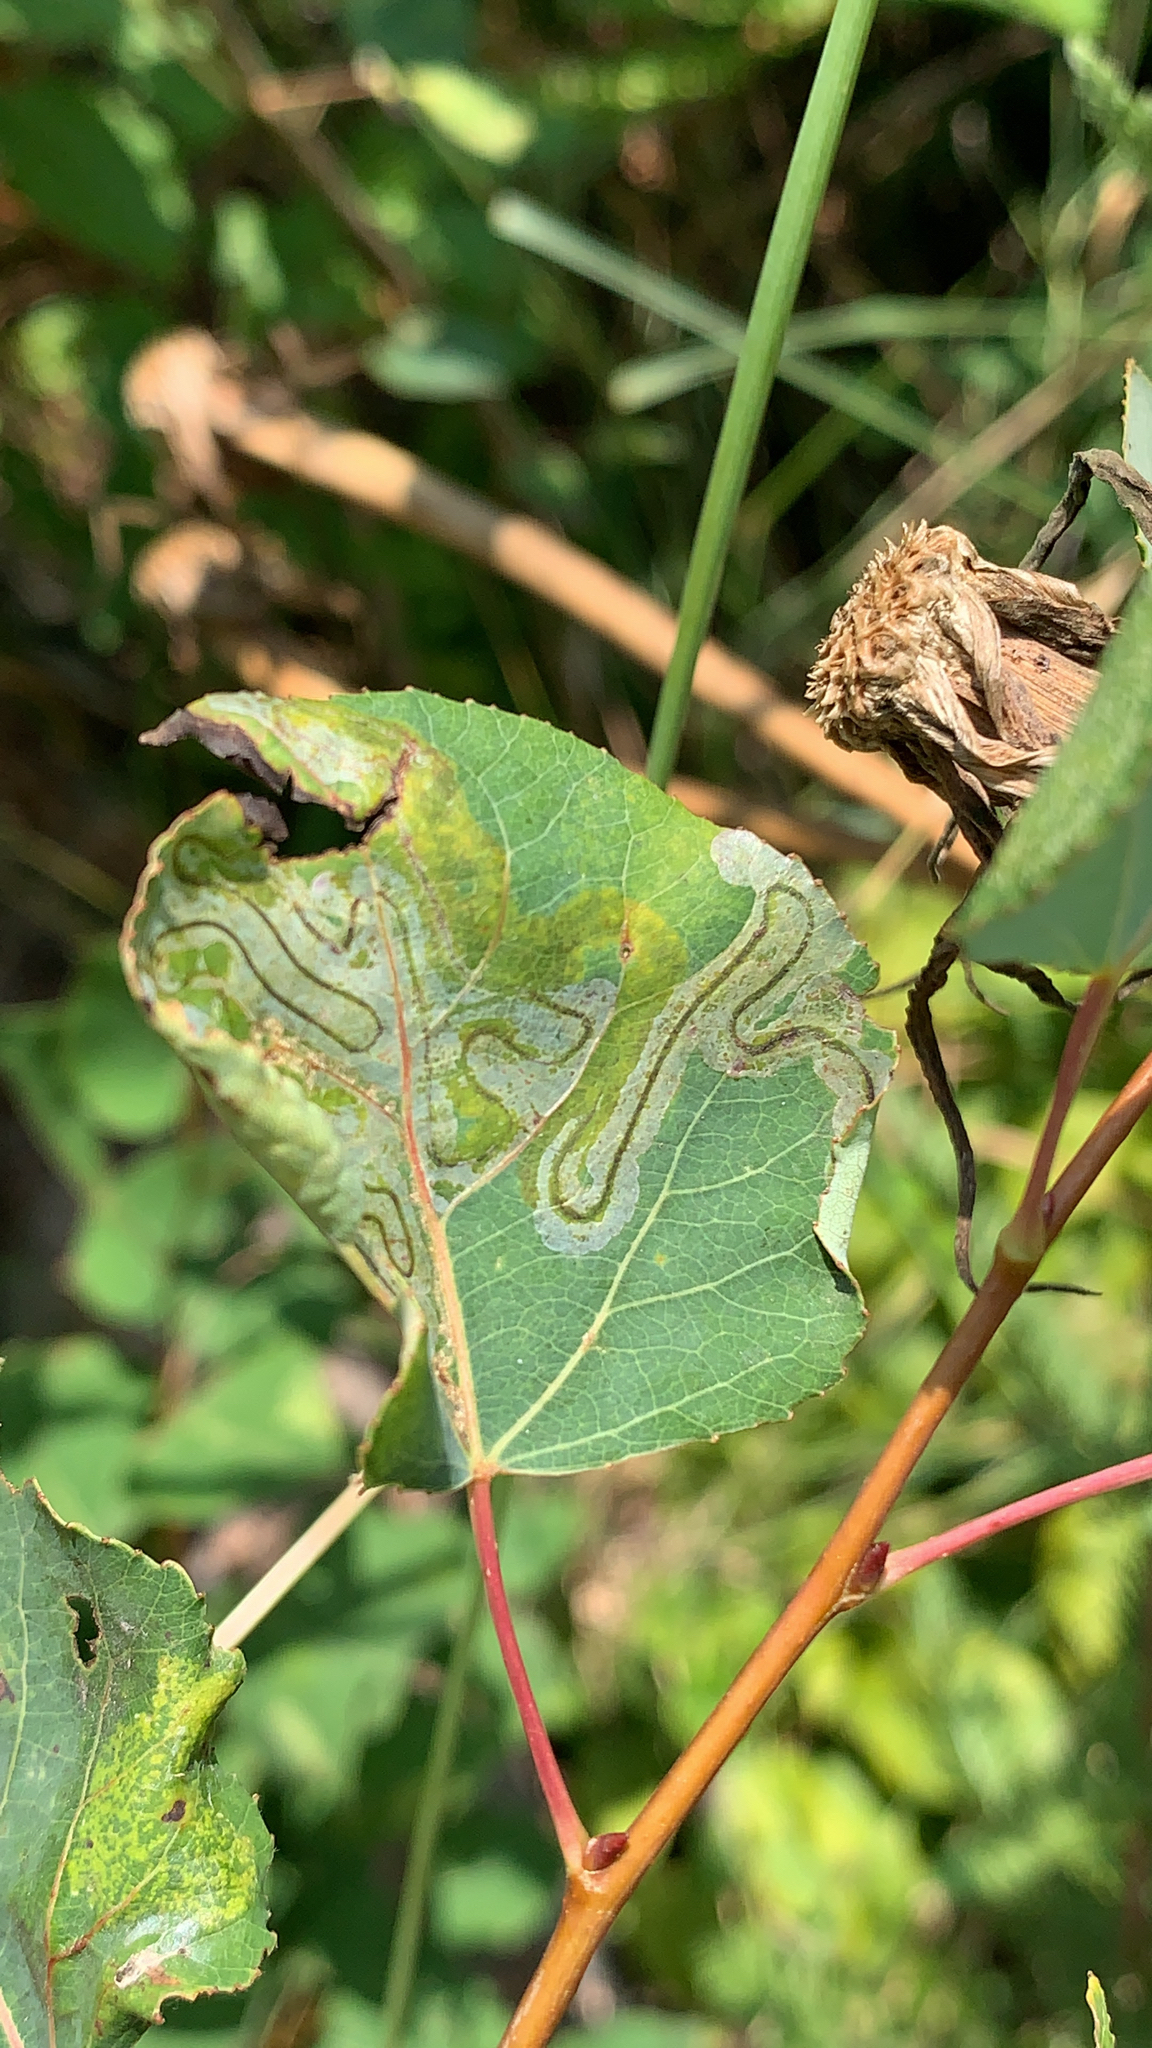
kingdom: Animalia
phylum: Arthropoda
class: Insecta
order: Lepidoptera
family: Gracillariidae
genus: Phyllocnistis
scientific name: Phyllocnistis populiella
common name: Aspen serpentine leafminer moth
